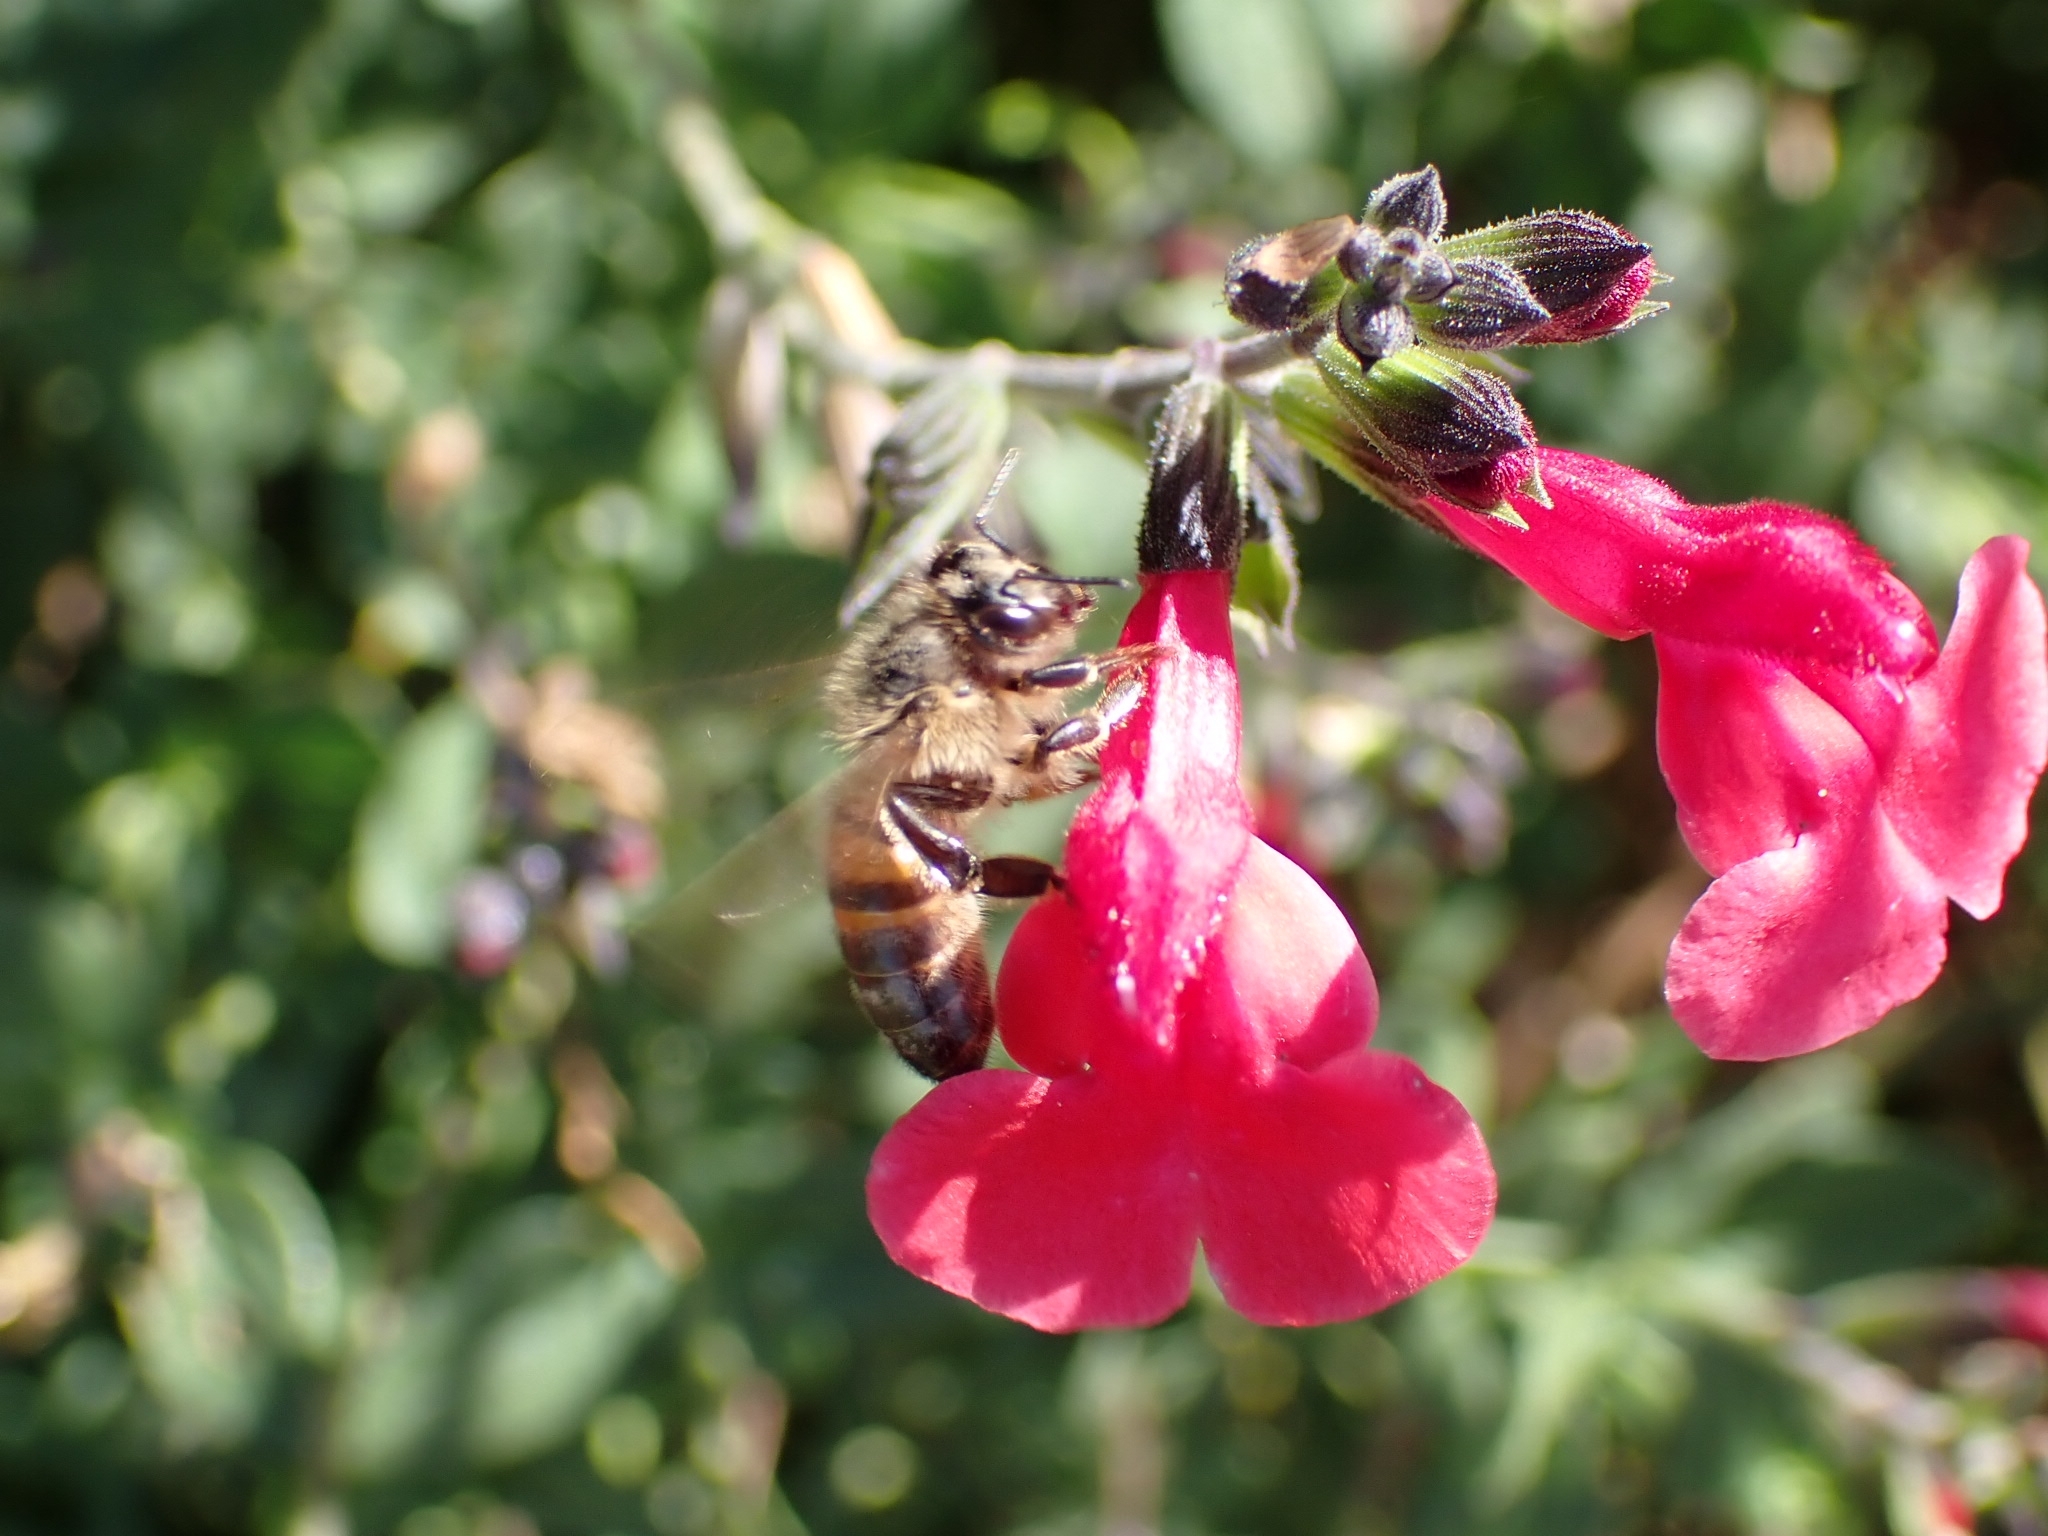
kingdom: Animalia
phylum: Arthropoda
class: Insecta
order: Hymenoptera
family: Apidae
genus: Apis
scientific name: Apis mellifera
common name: Honey bee
